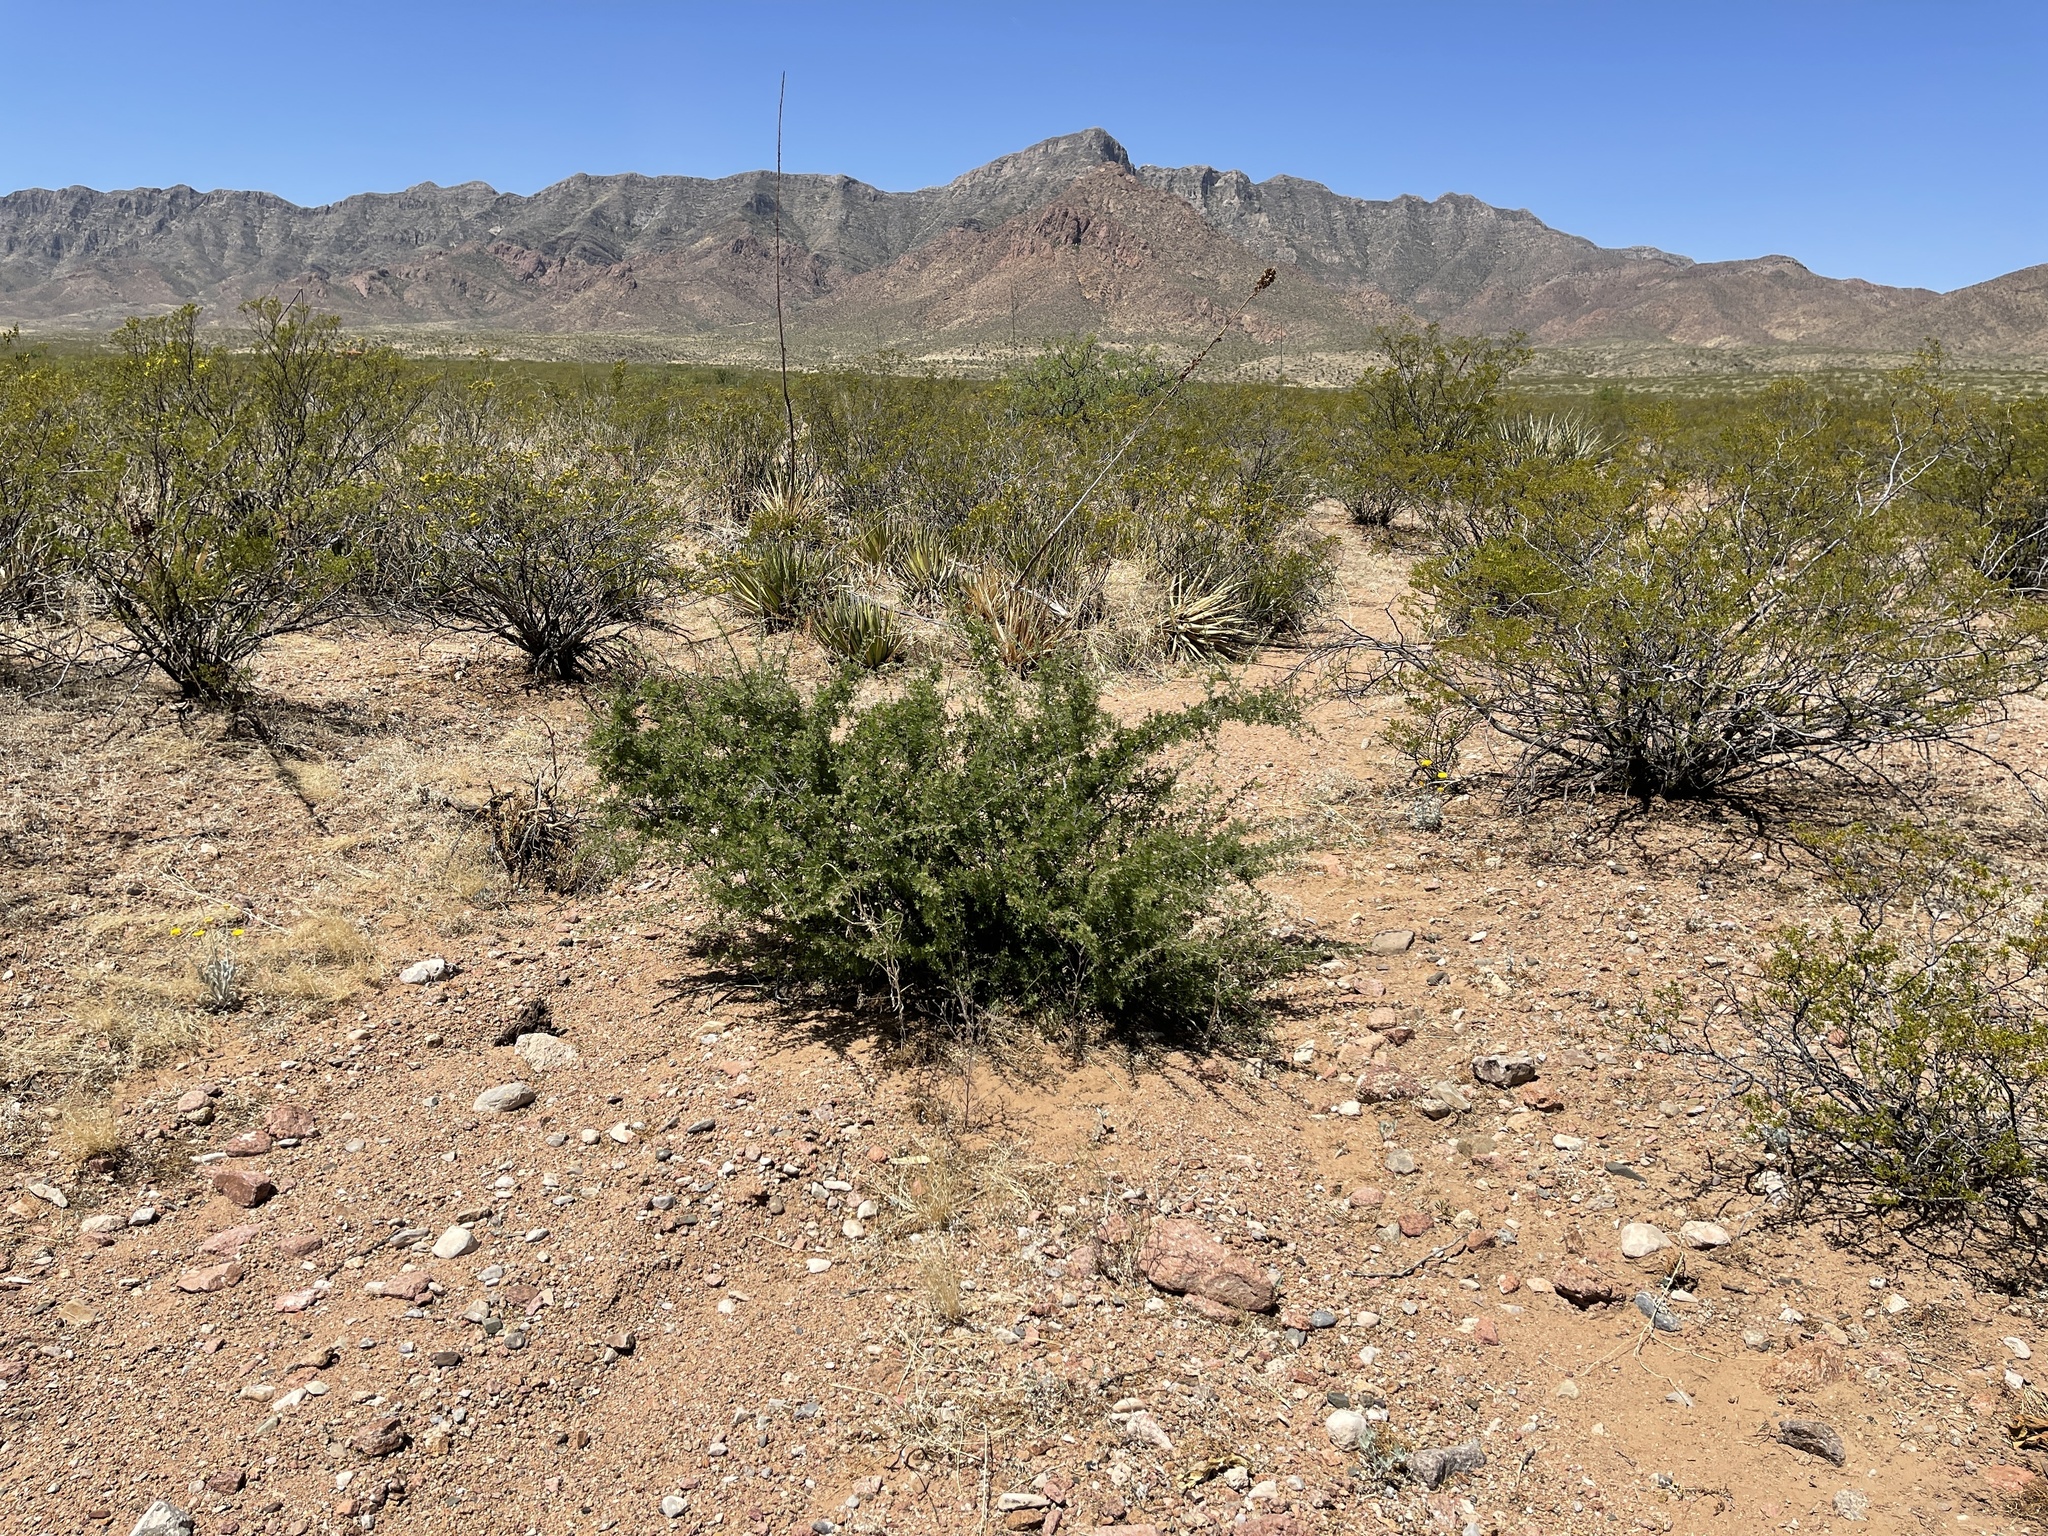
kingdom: Plantae
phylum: Tracheophyta
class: Magnoliopsida
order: Sapindales
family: Anacardiaceae
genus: Rhus
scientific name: Rhus microphylla
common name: Desert sumac
